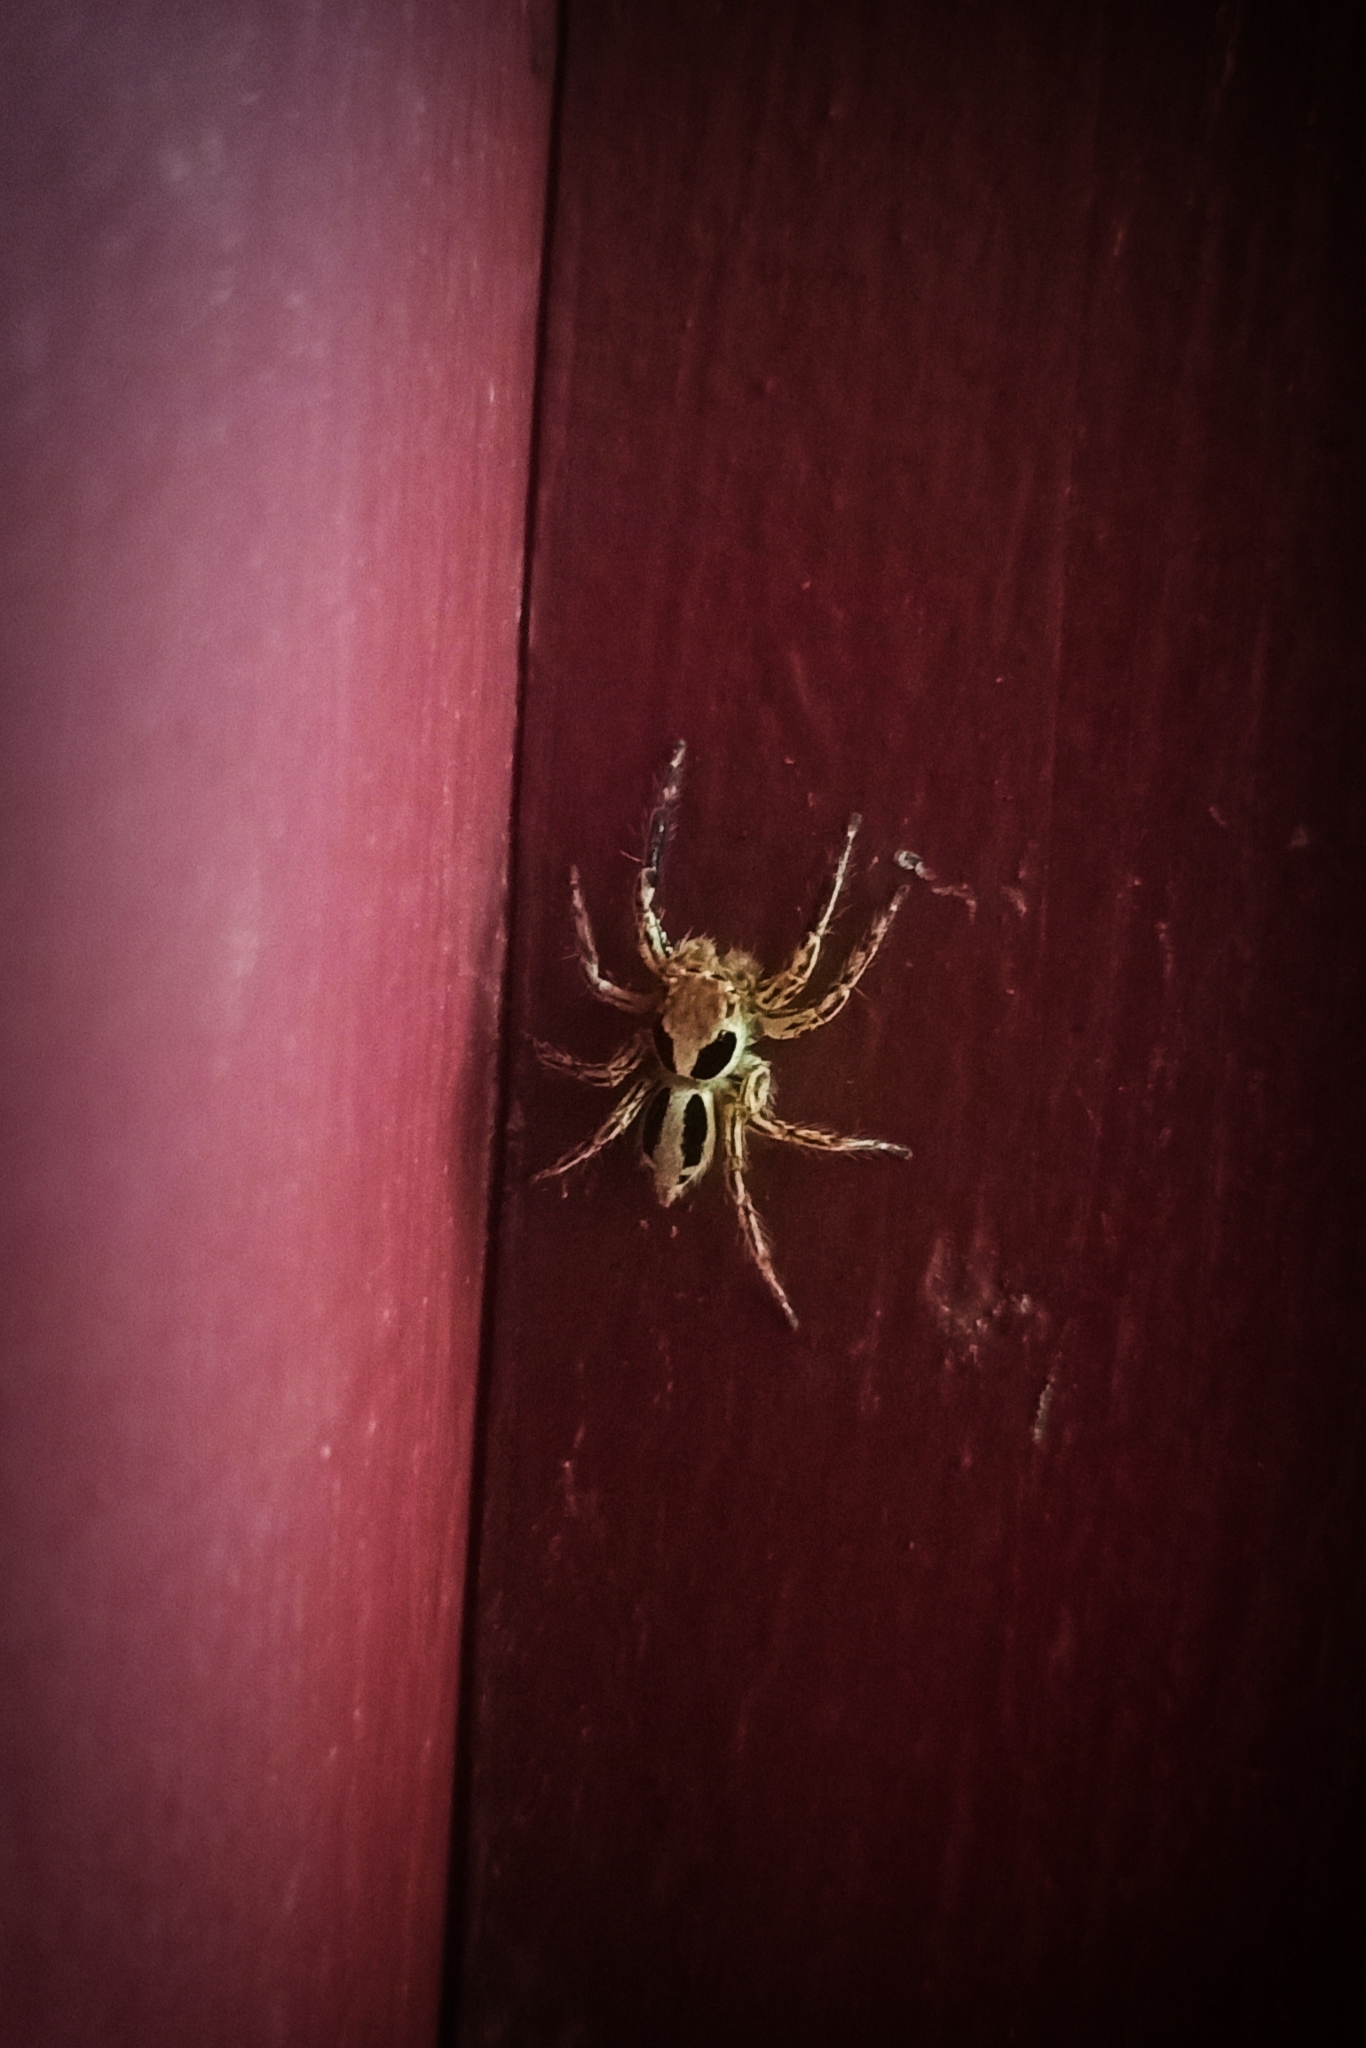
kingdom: Animalia
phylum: Arthropoda
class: Arachnida
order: Araneae
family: Salticidae
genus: Plexippus
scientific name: Plexippus petersi
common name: Jumping spider
